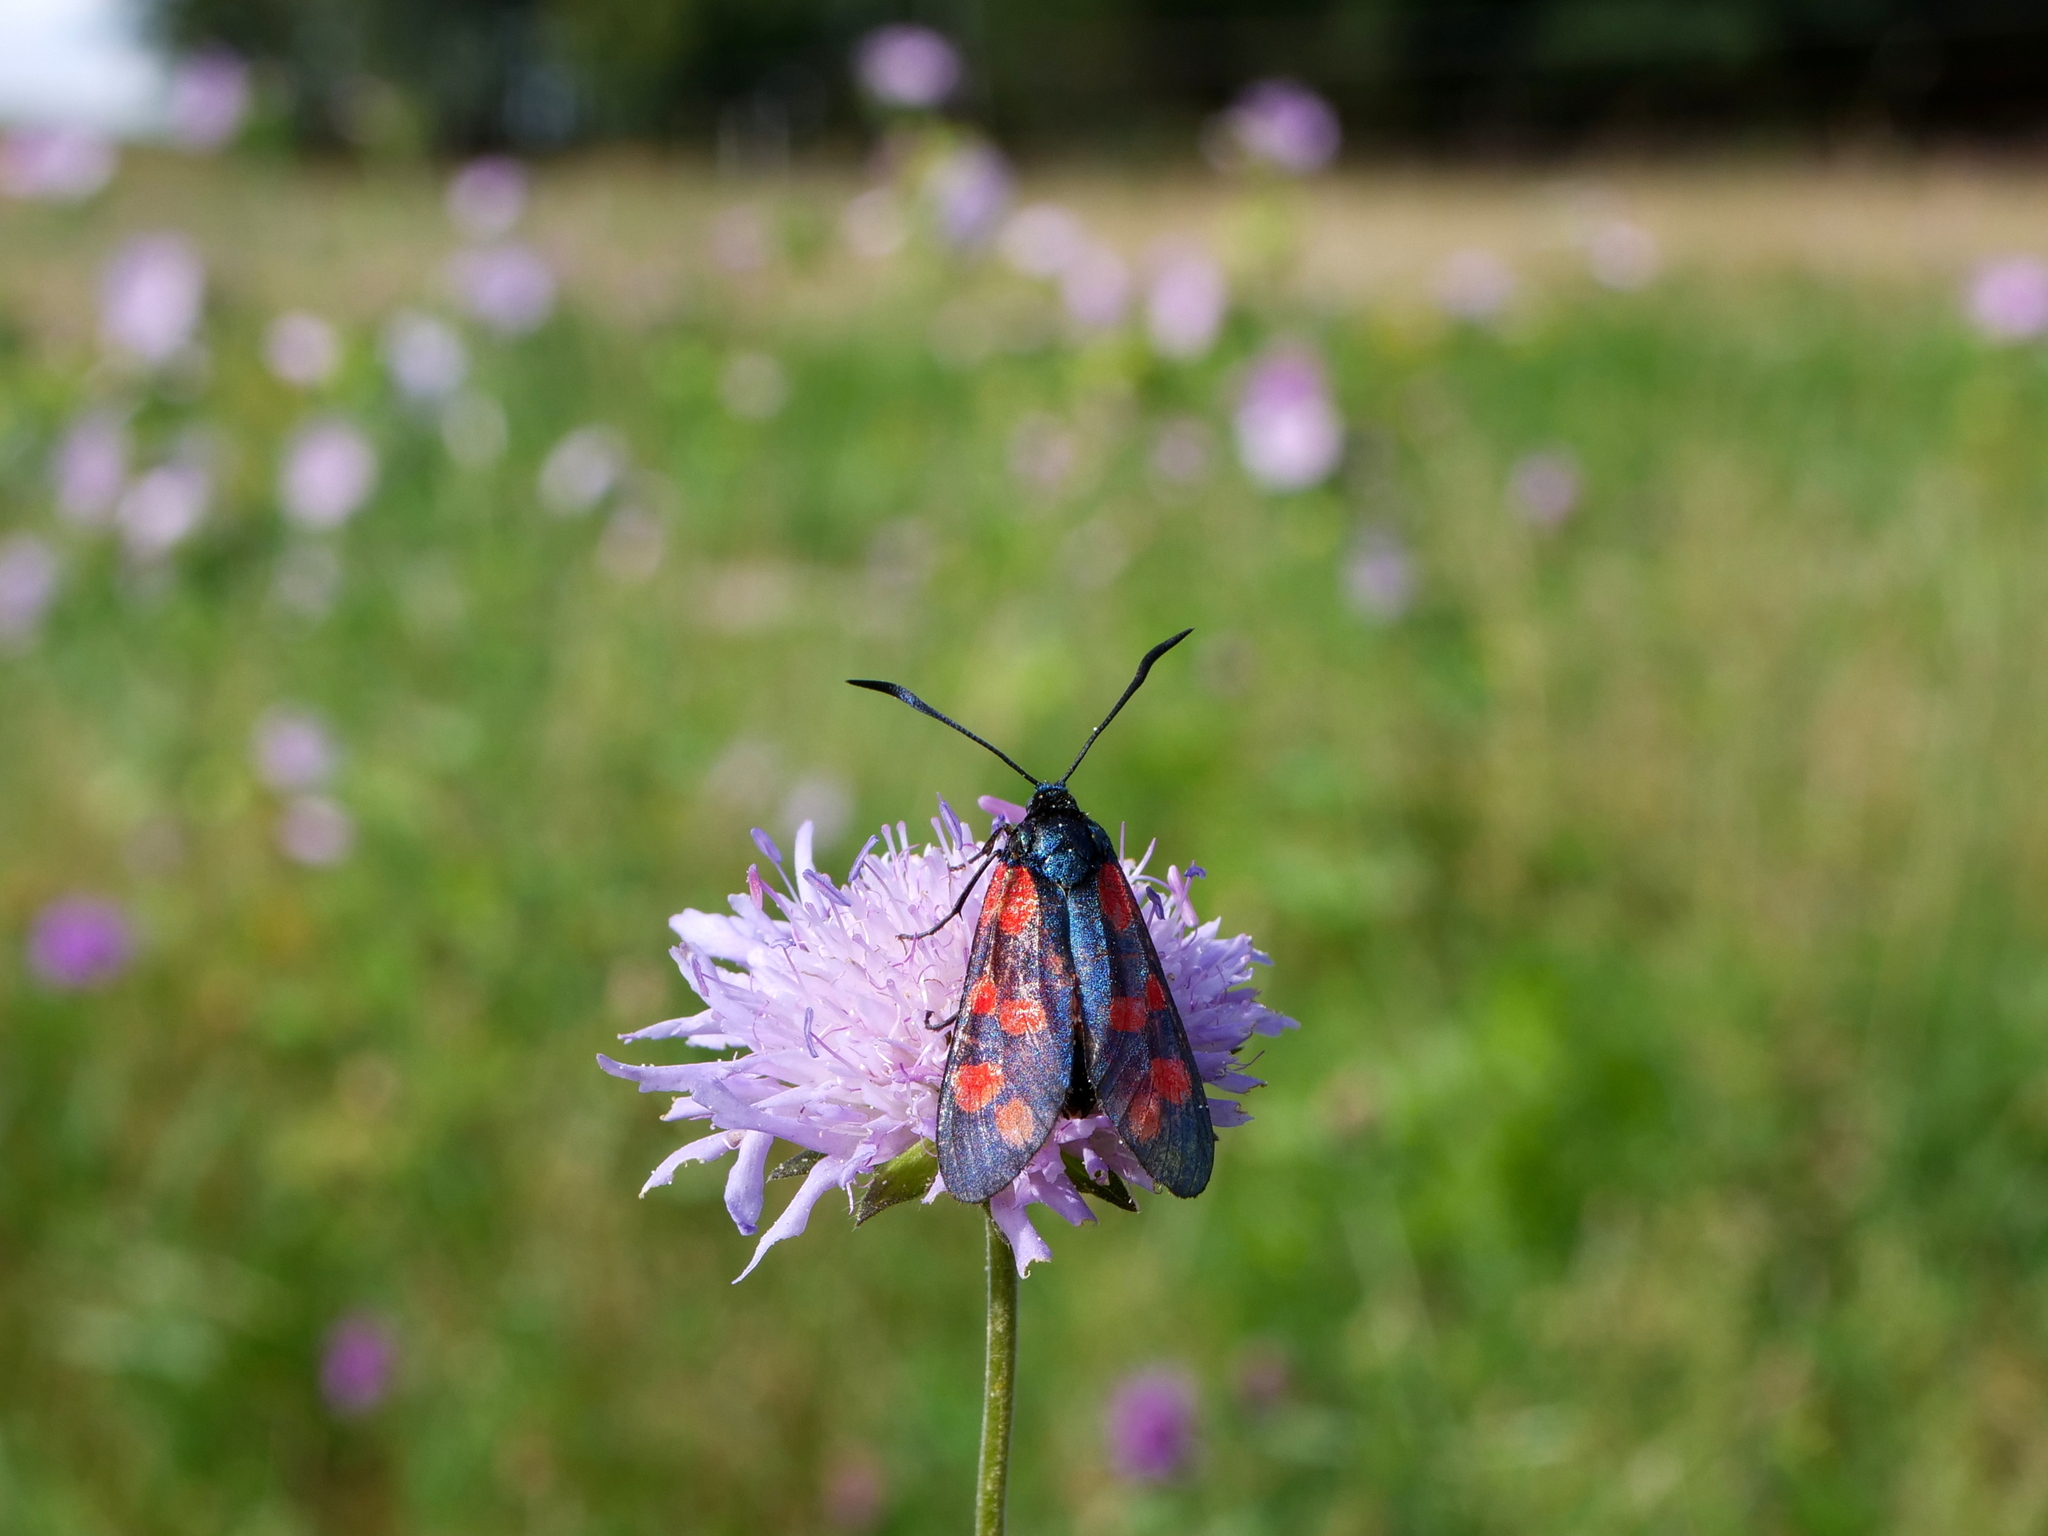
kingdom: Animalia
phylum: Arthropoda
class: Insecta
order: Lepidoptera
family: Zygaenidae
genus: Zygaena
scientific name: Zygaena filipendulae
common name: Six-spot burnet
